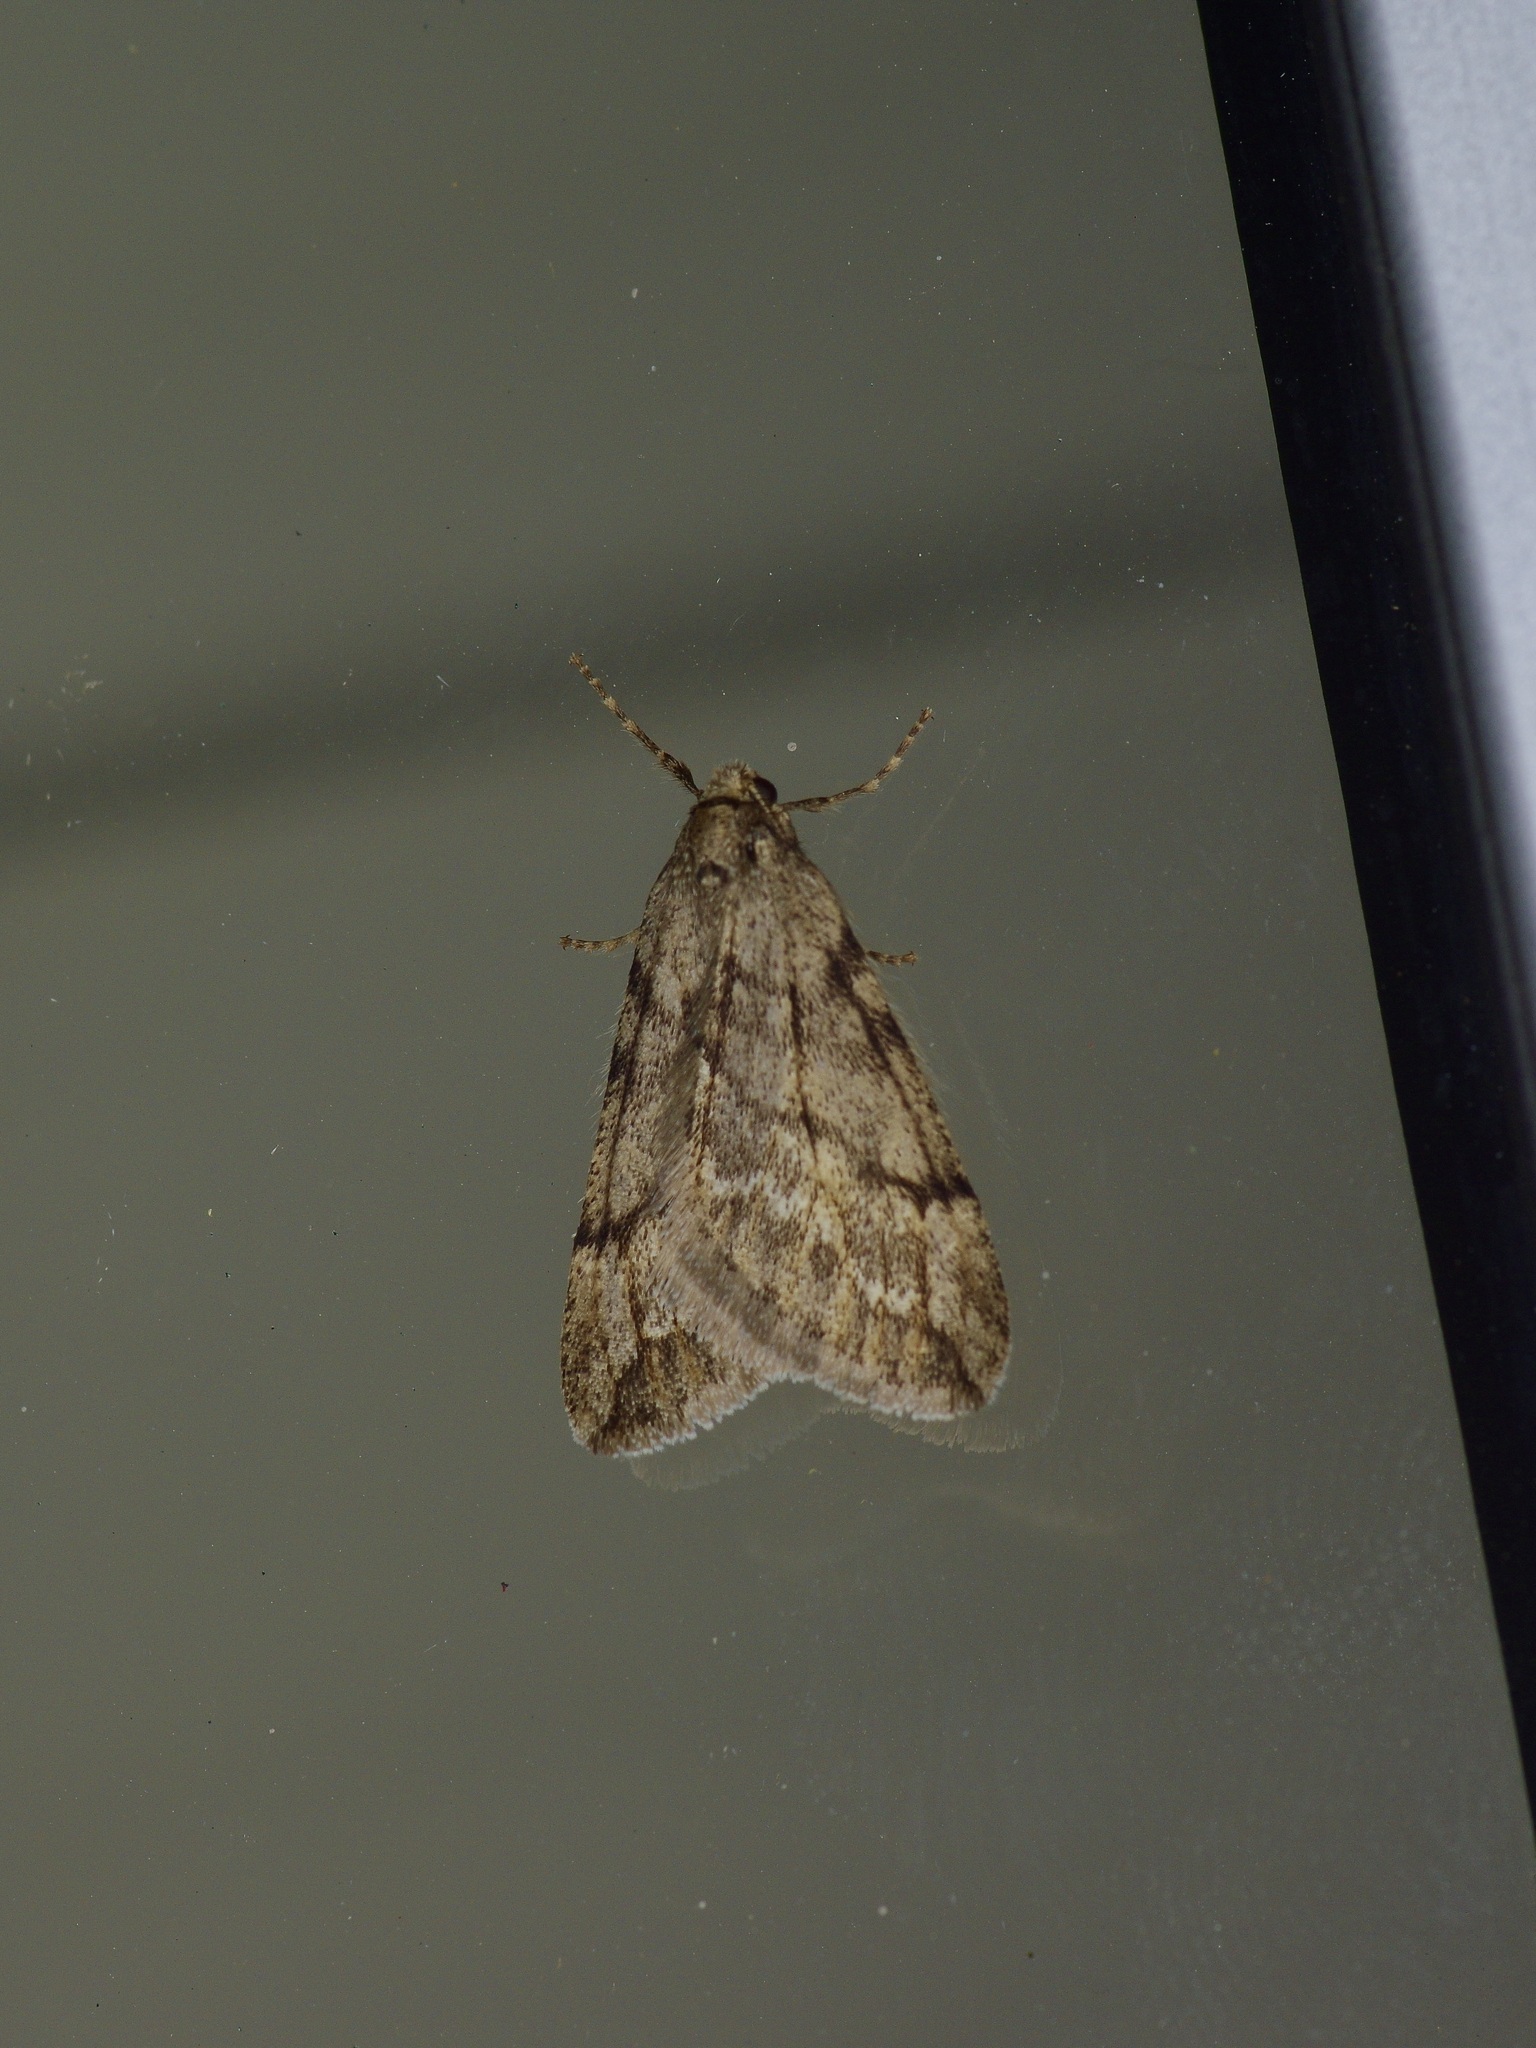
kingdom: Animalia
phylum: Arthropoda
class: Insecta
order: Lepidoptera
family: Geometridae
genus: Paleacrita
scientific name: Paleacrita vernata
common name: Spring cankerworm
